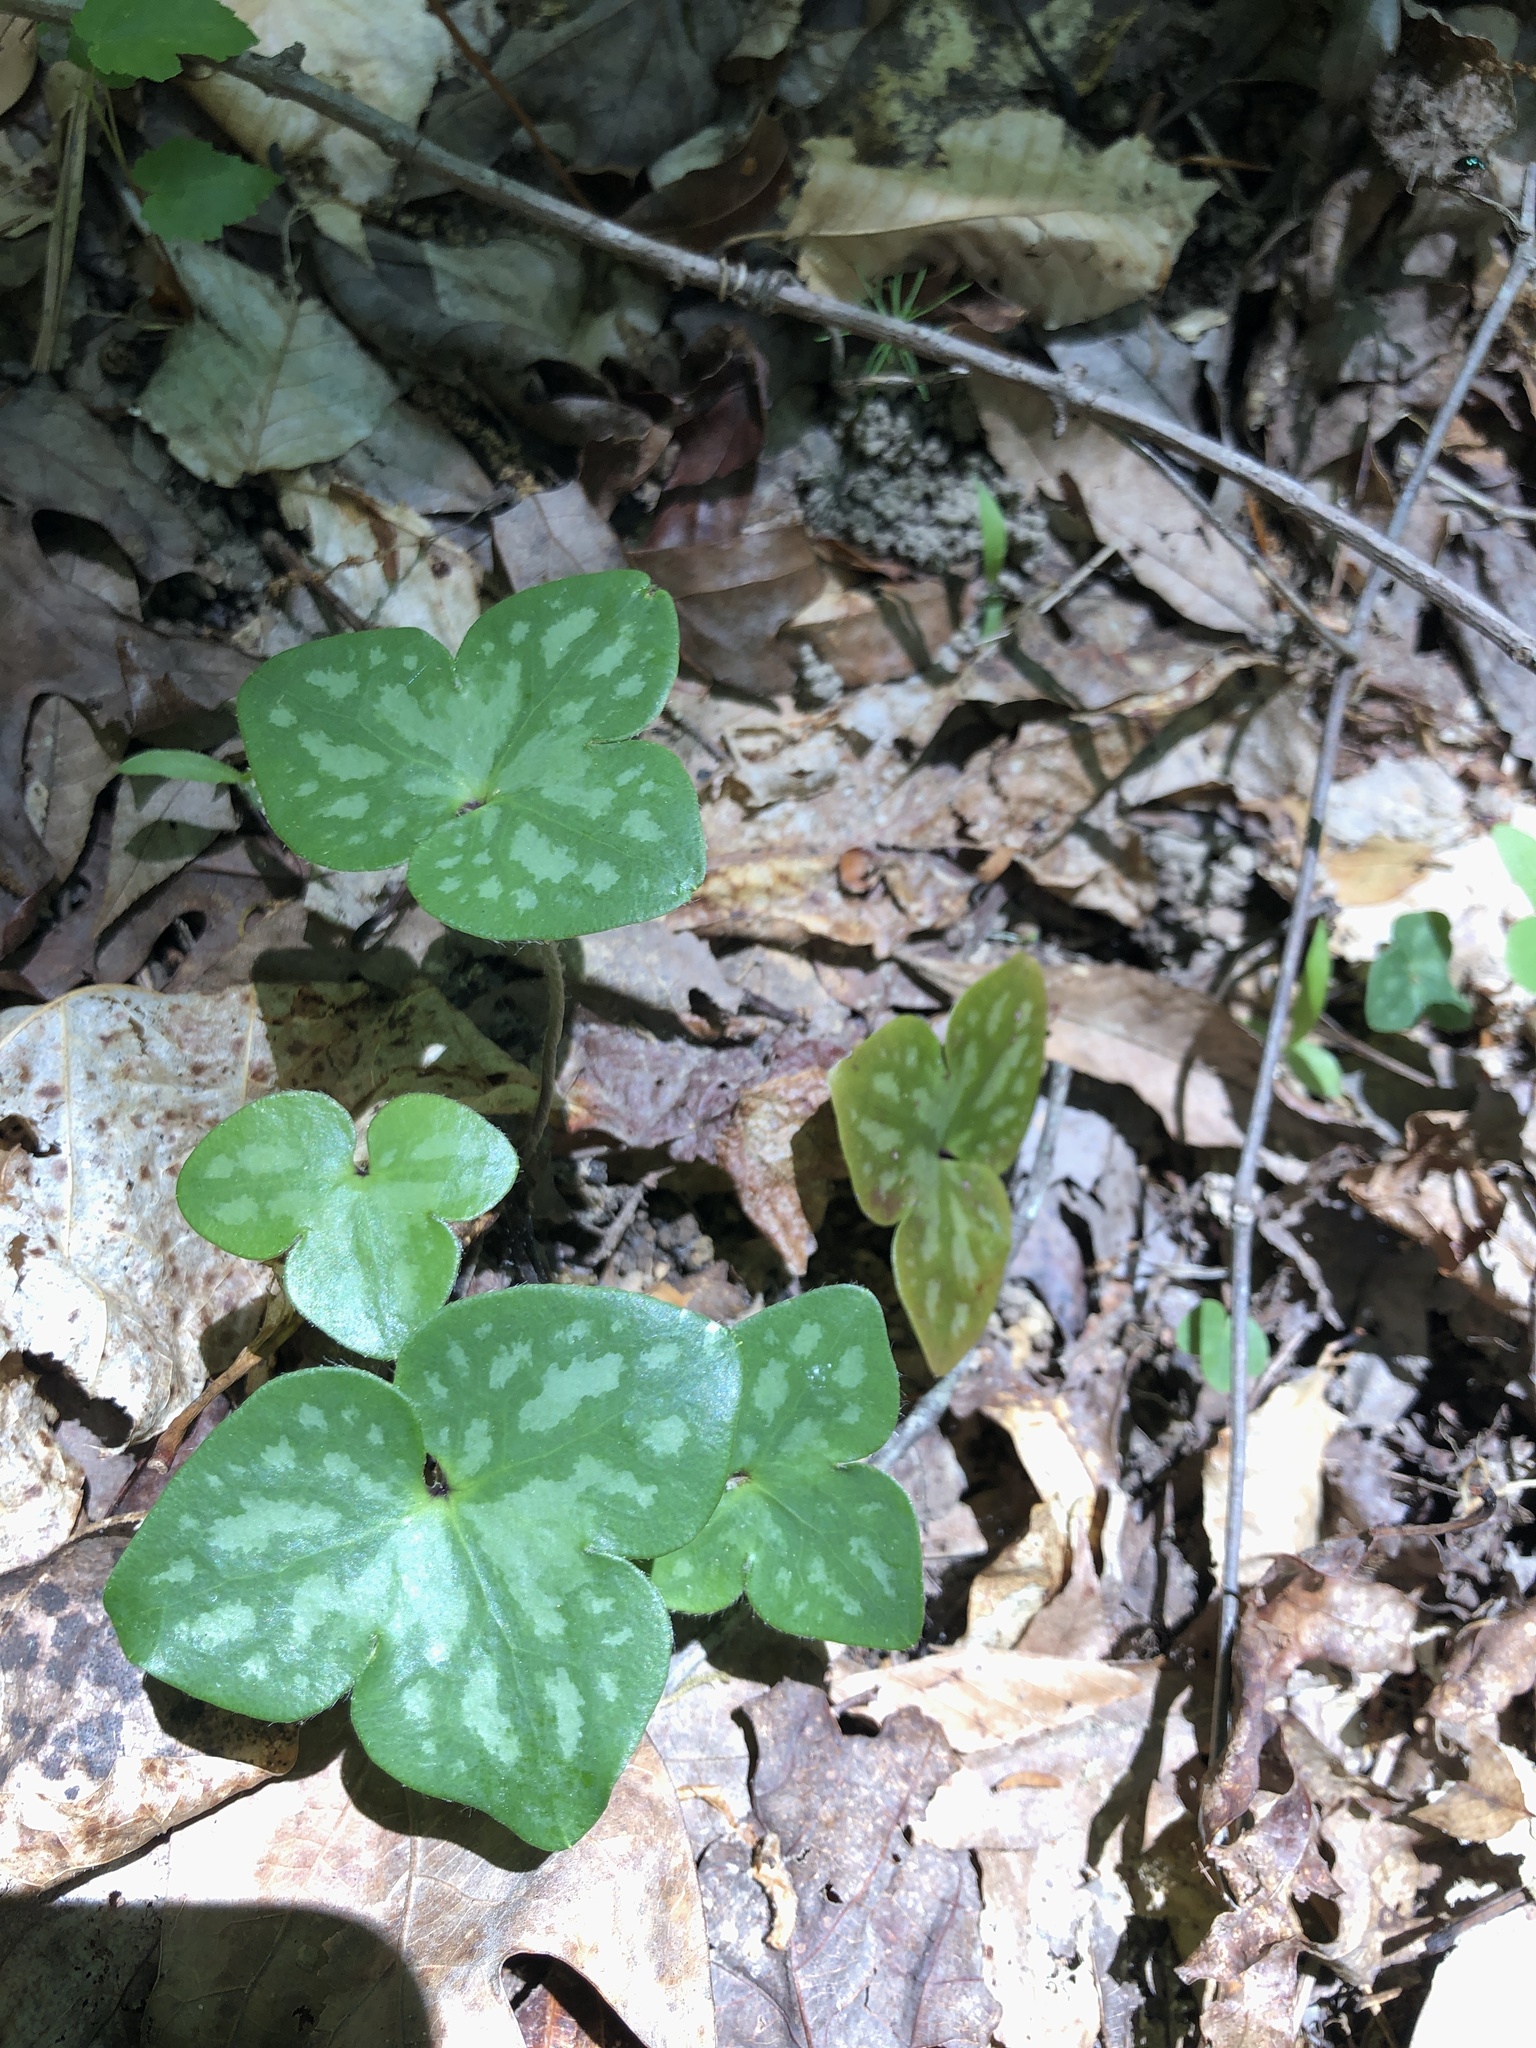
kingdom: Plantae
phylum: Tracheophyta
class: Magnoliopsida
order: Ranunculales
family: Ranunculaceae
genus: Hepatica
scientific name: Hepatica americana
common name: American hepatica
